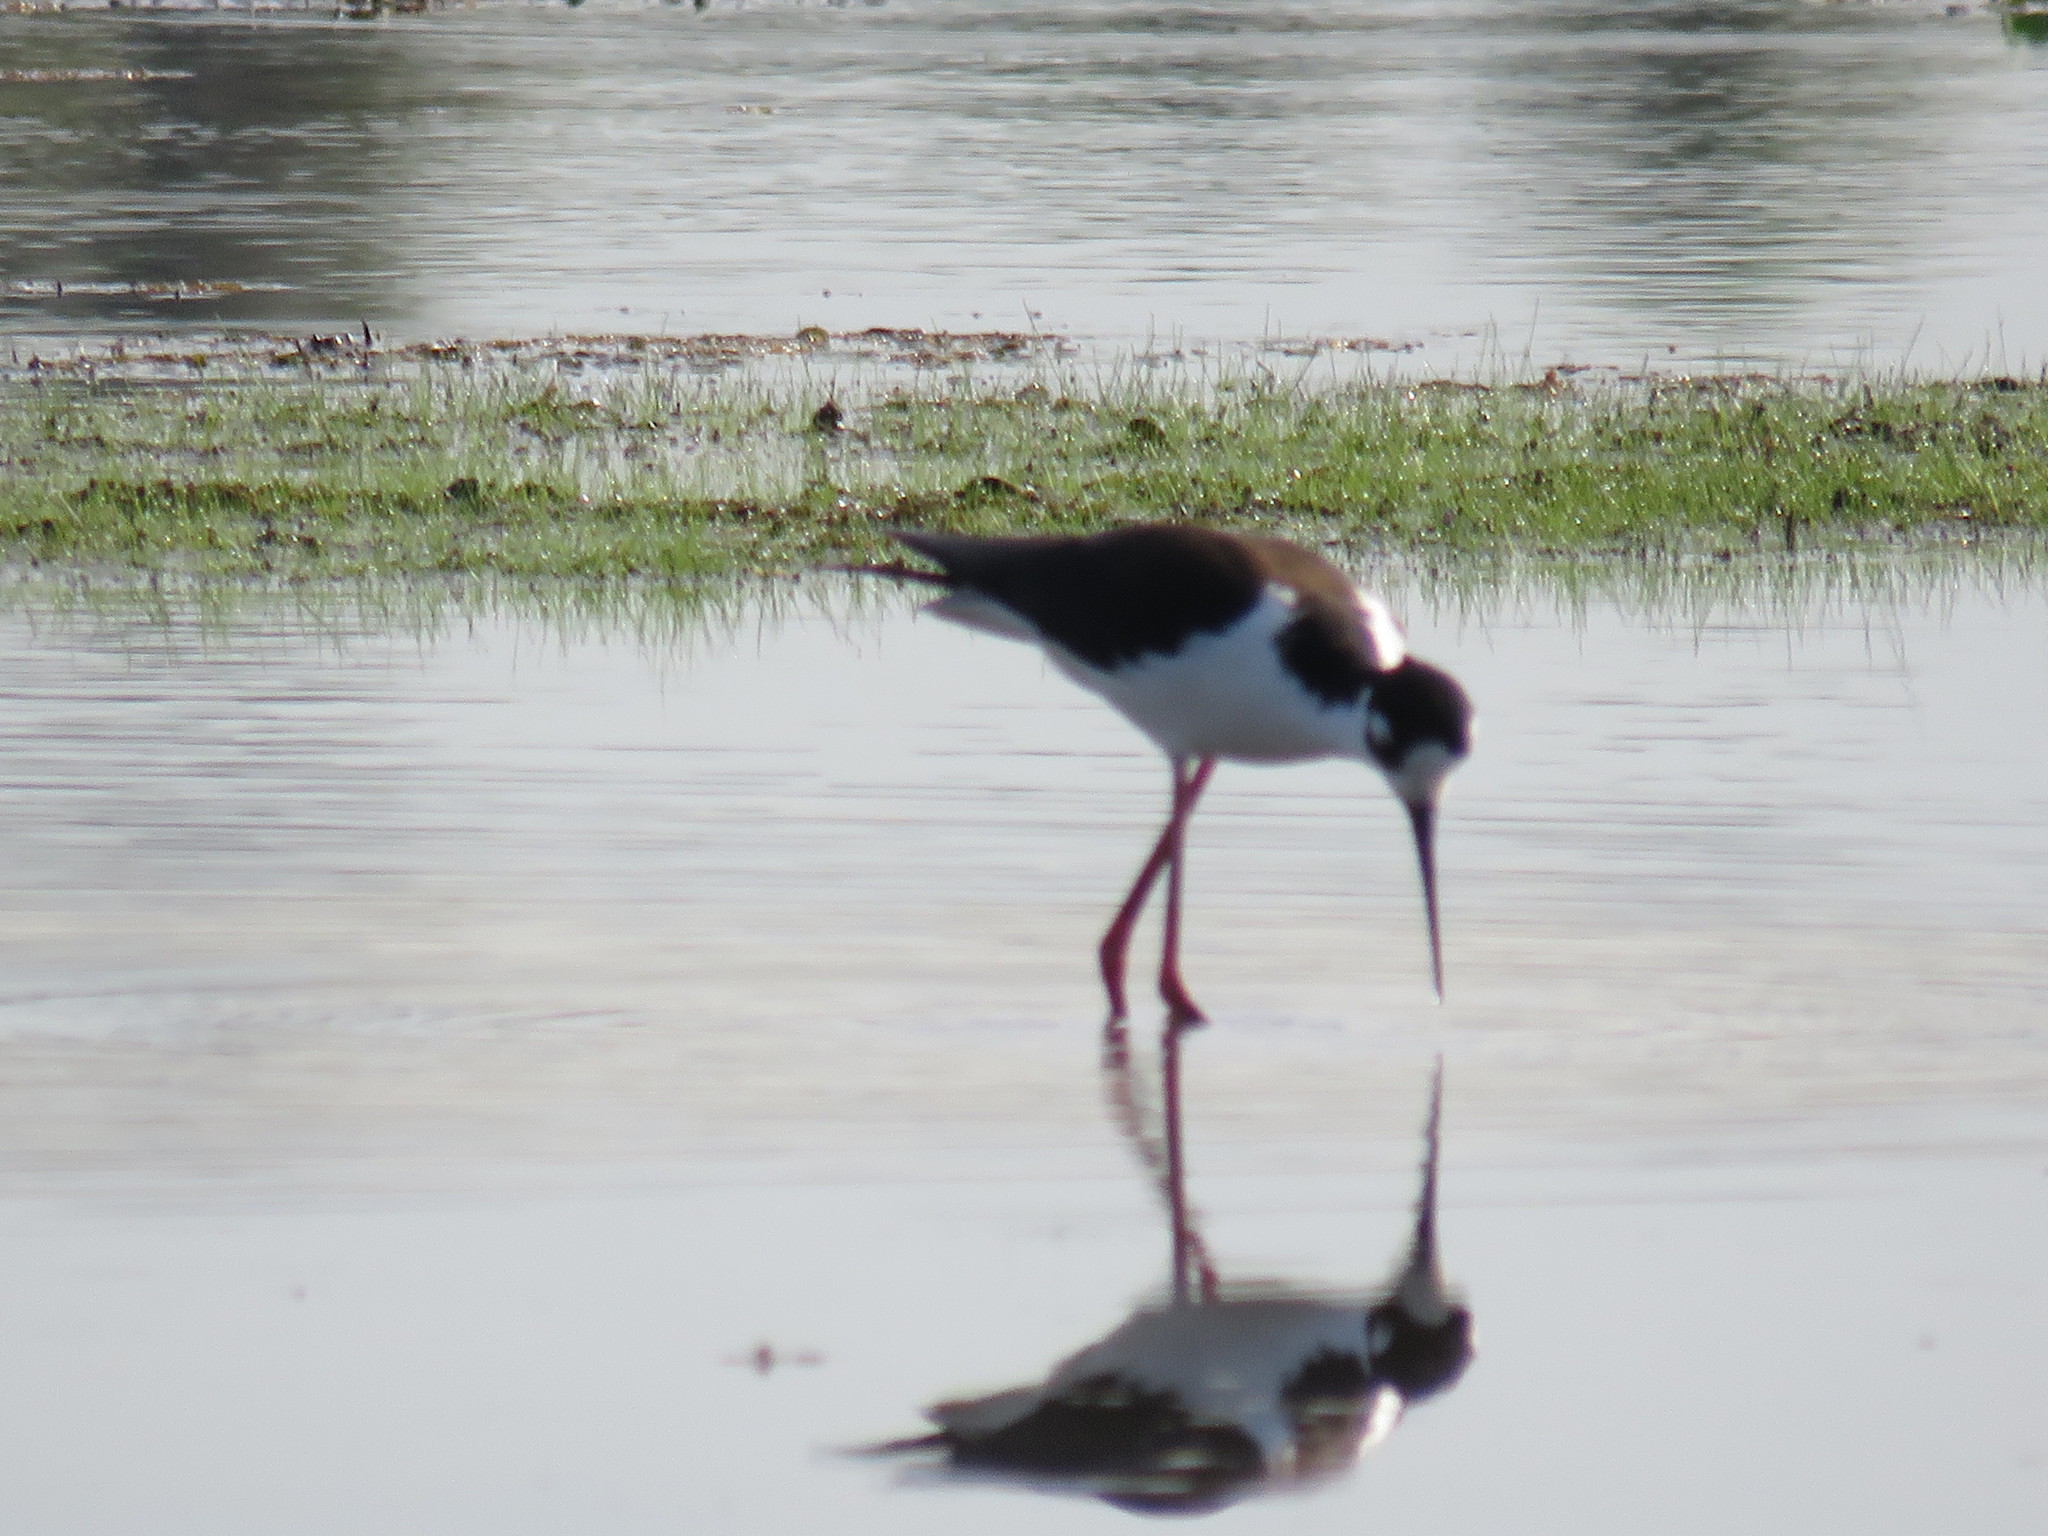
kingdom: Animalia
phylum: Chordata
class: Aves
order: Charadriiformes
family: Recurvirostridae
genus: Himantopus
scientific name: Himantopus mexicanus
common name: Black-necked stilt
